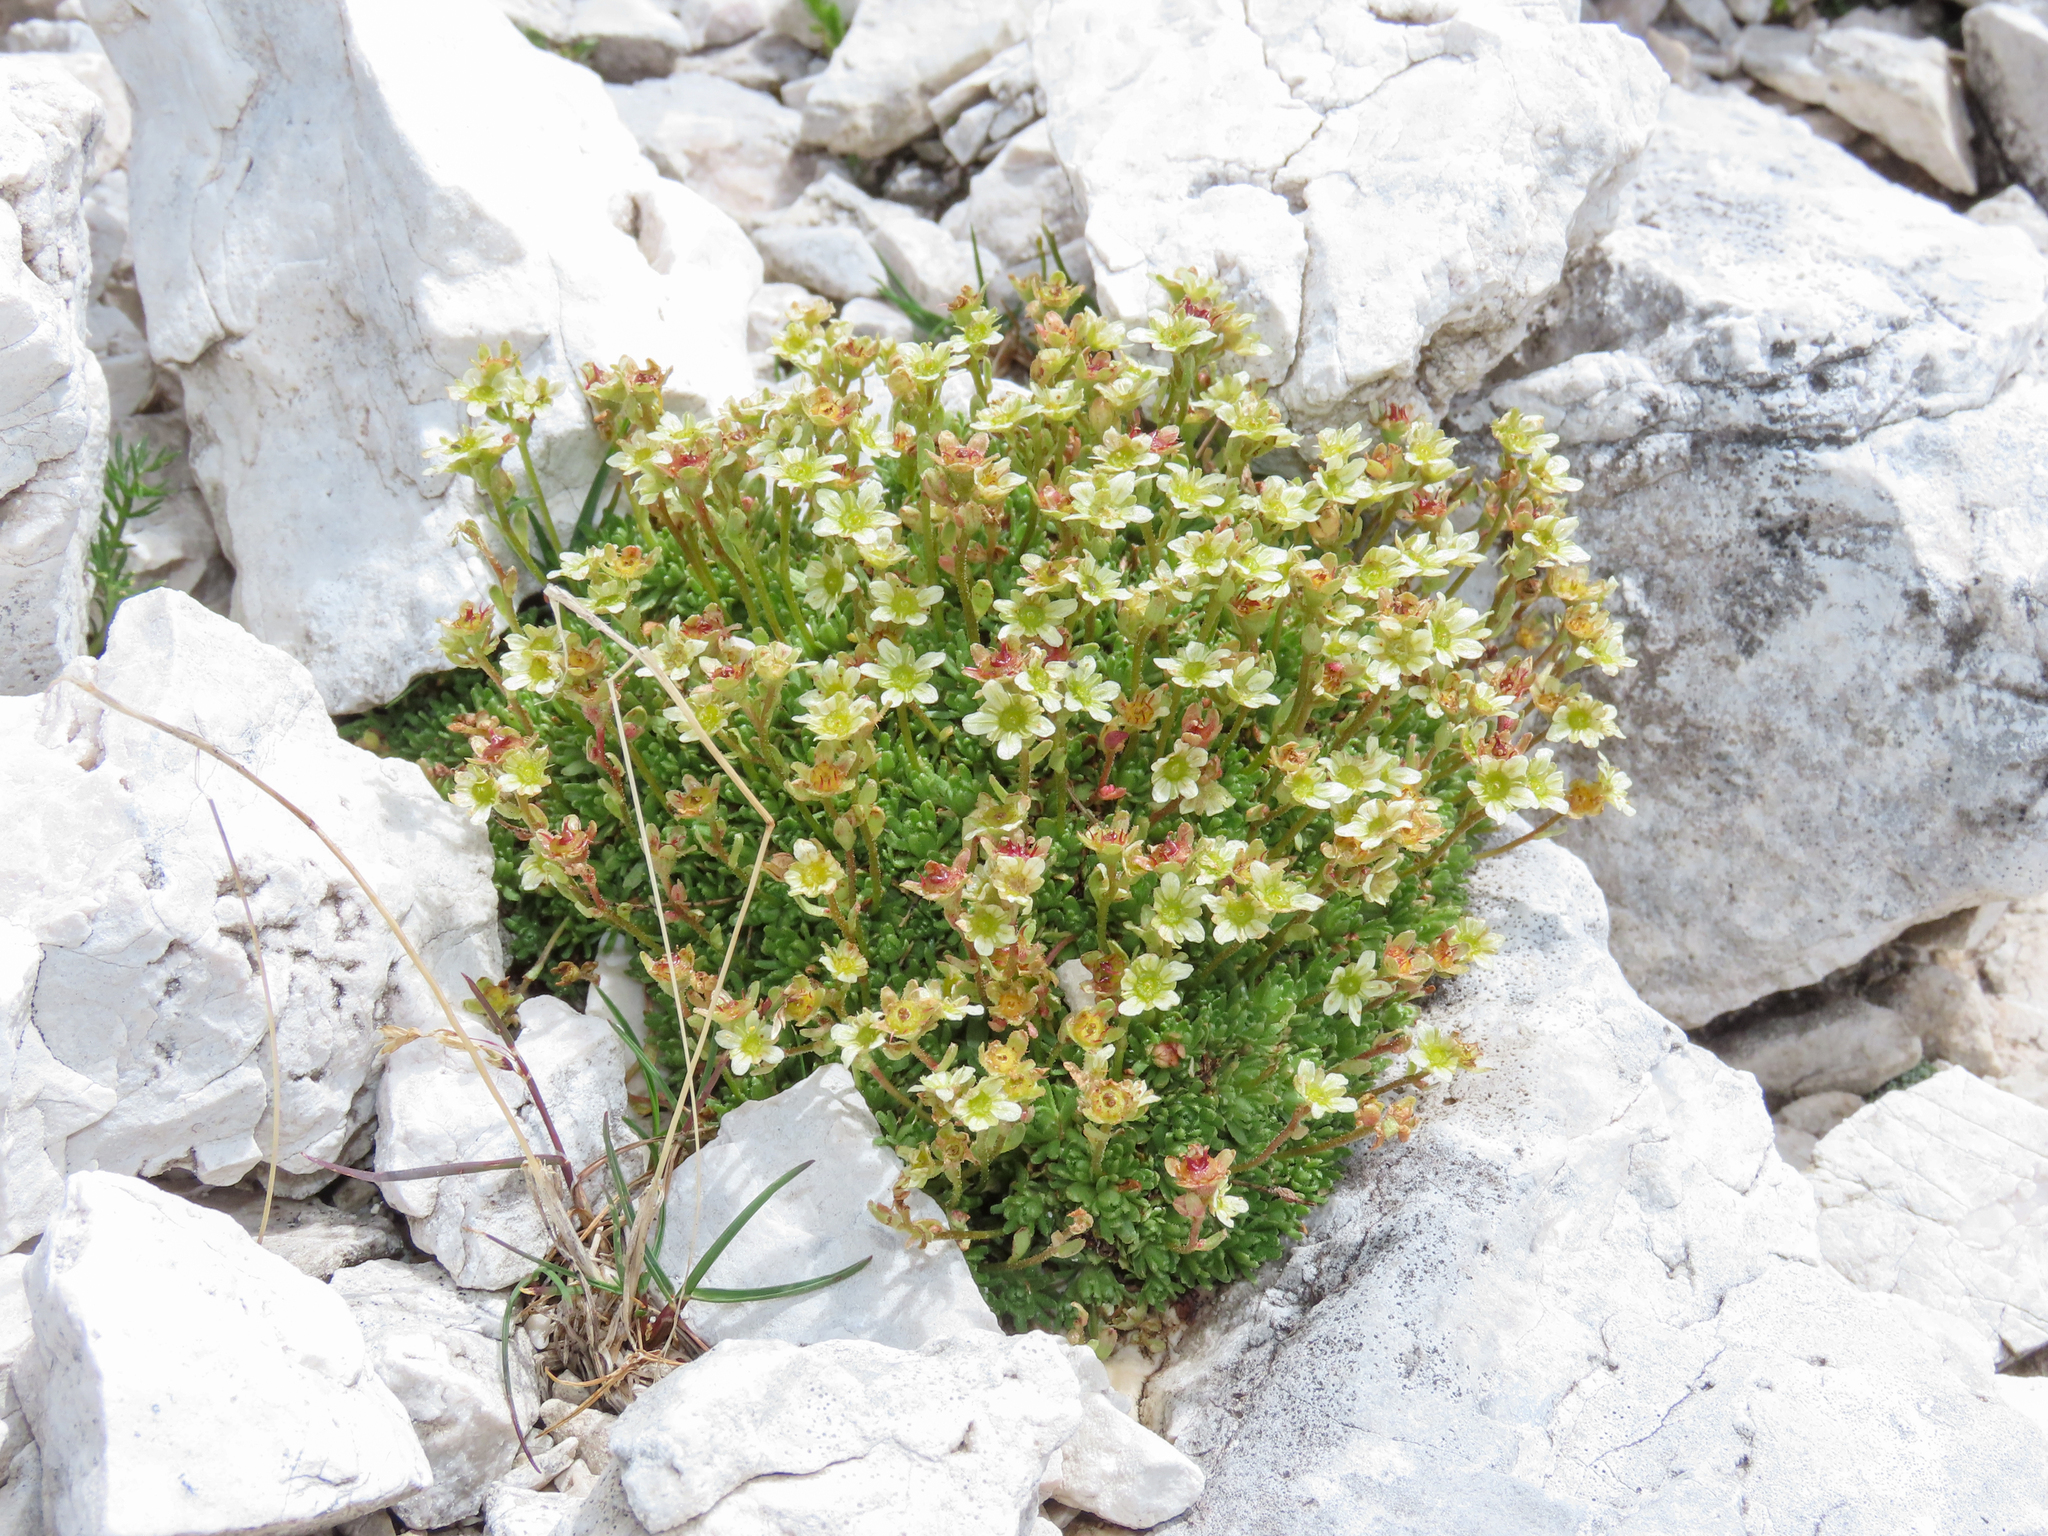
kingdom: Plantae
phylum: Tracheophyta
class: Magnoliopsida
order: Saxifragales
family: Saxifragaceae
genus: Saxifraga
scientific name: Saxifraga moschata
